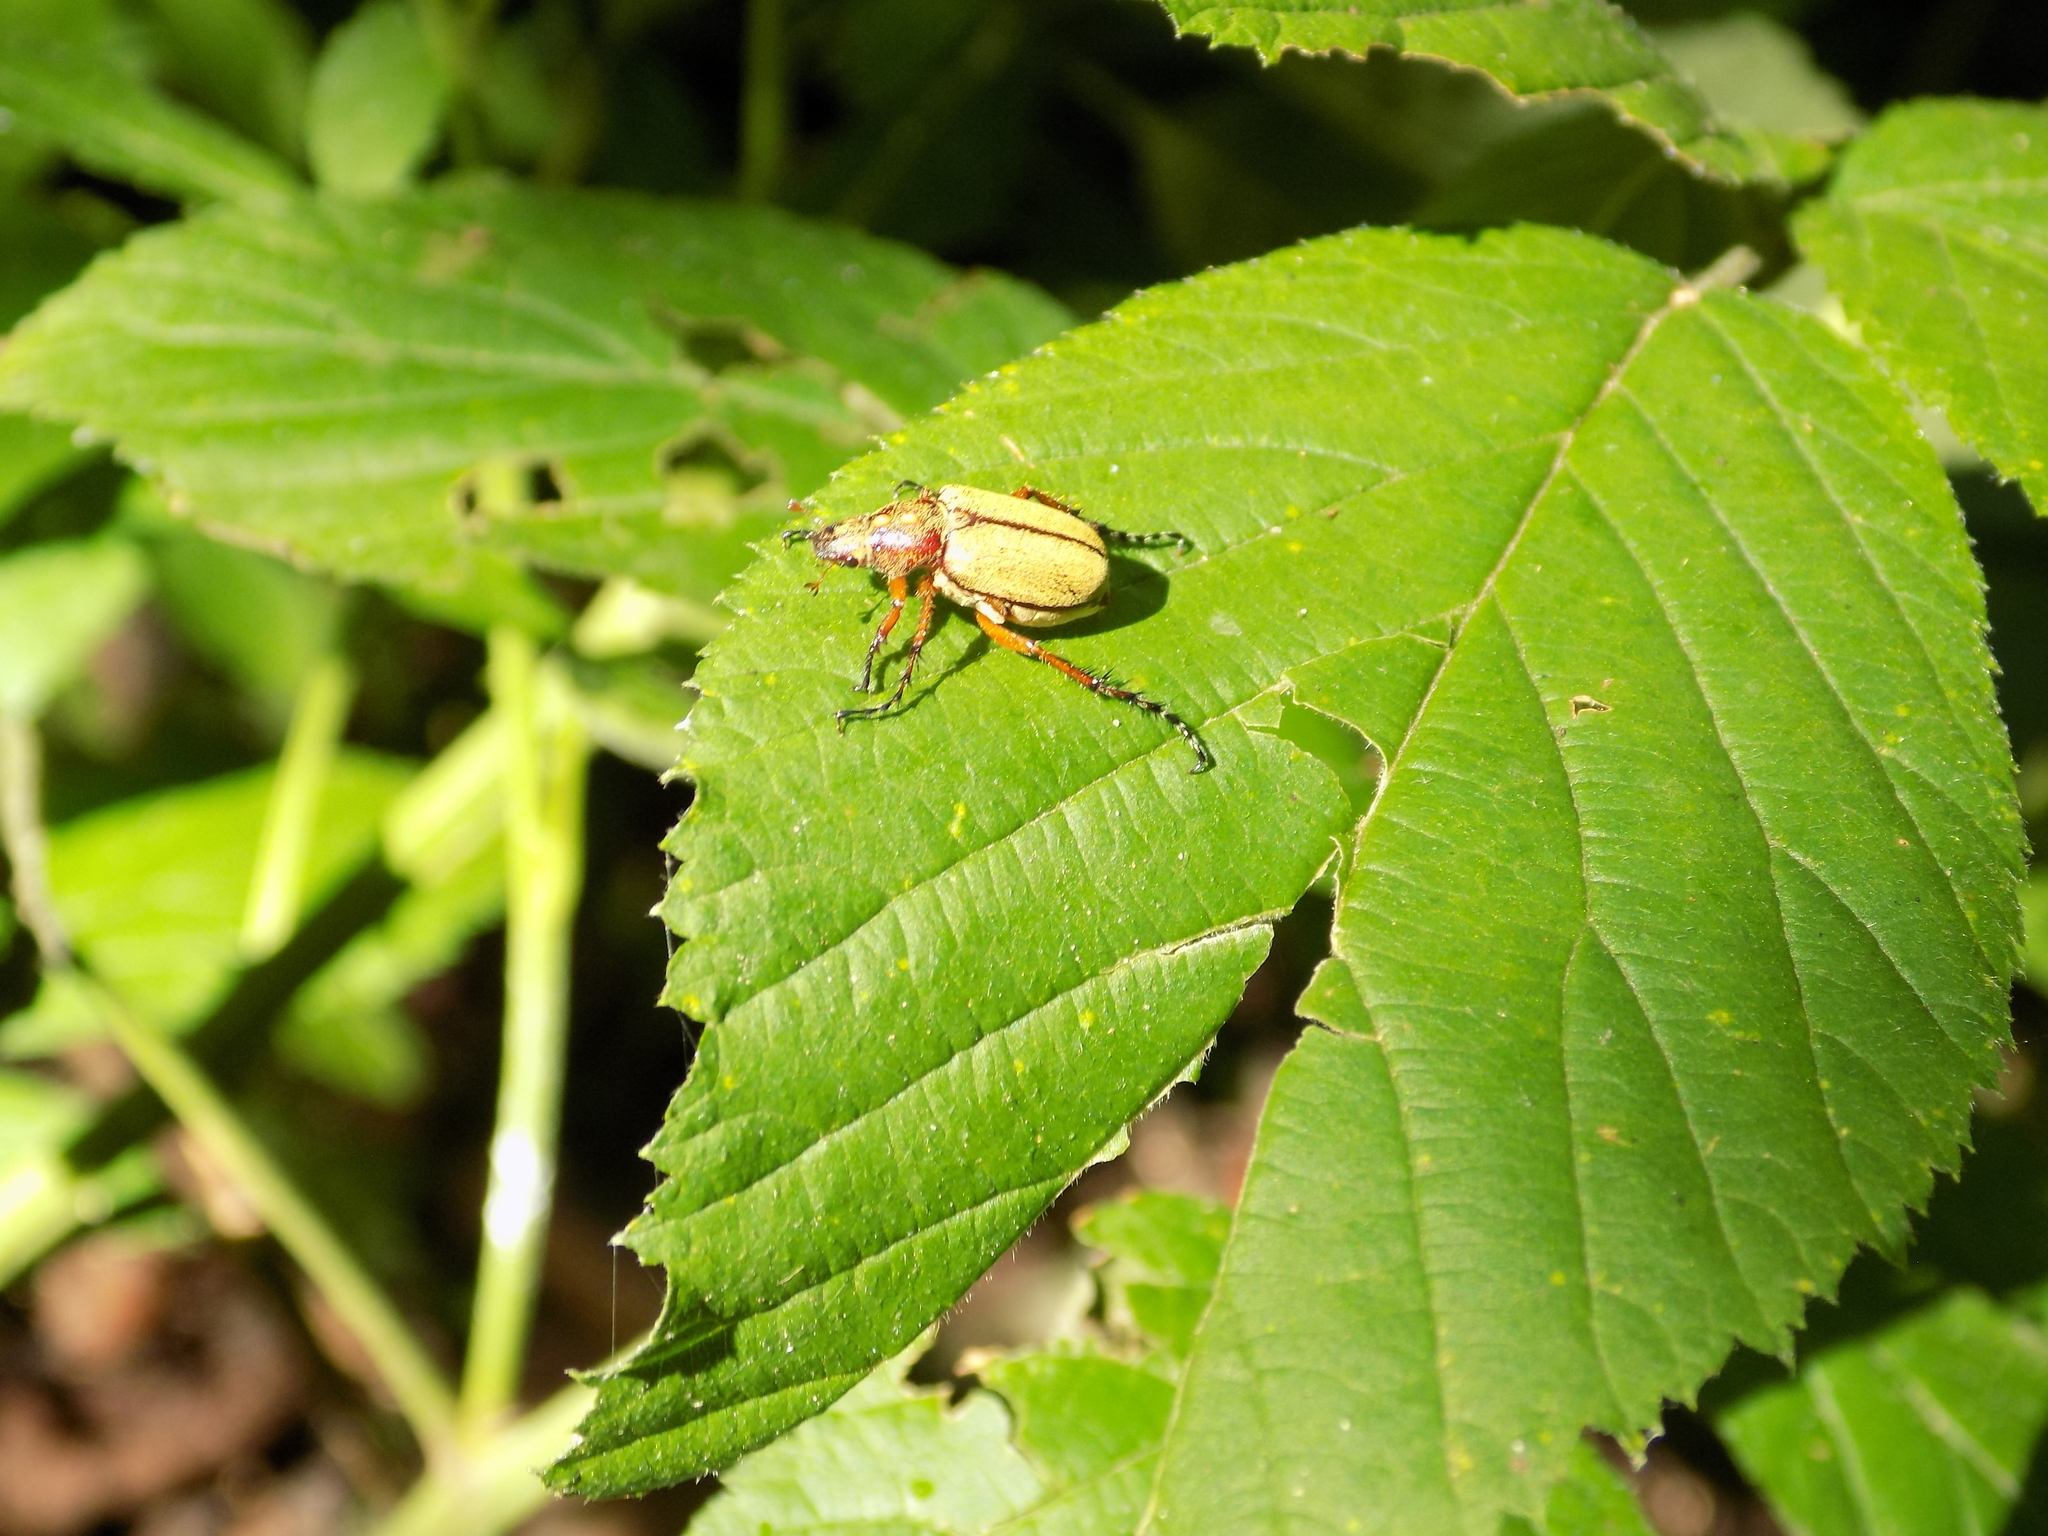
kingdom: Animalia
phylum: Arthropoda
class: Insecta
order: Coleoptera
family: Scarabaeidae
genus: Macrodactylus
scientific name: Macrodactylus angustatus
